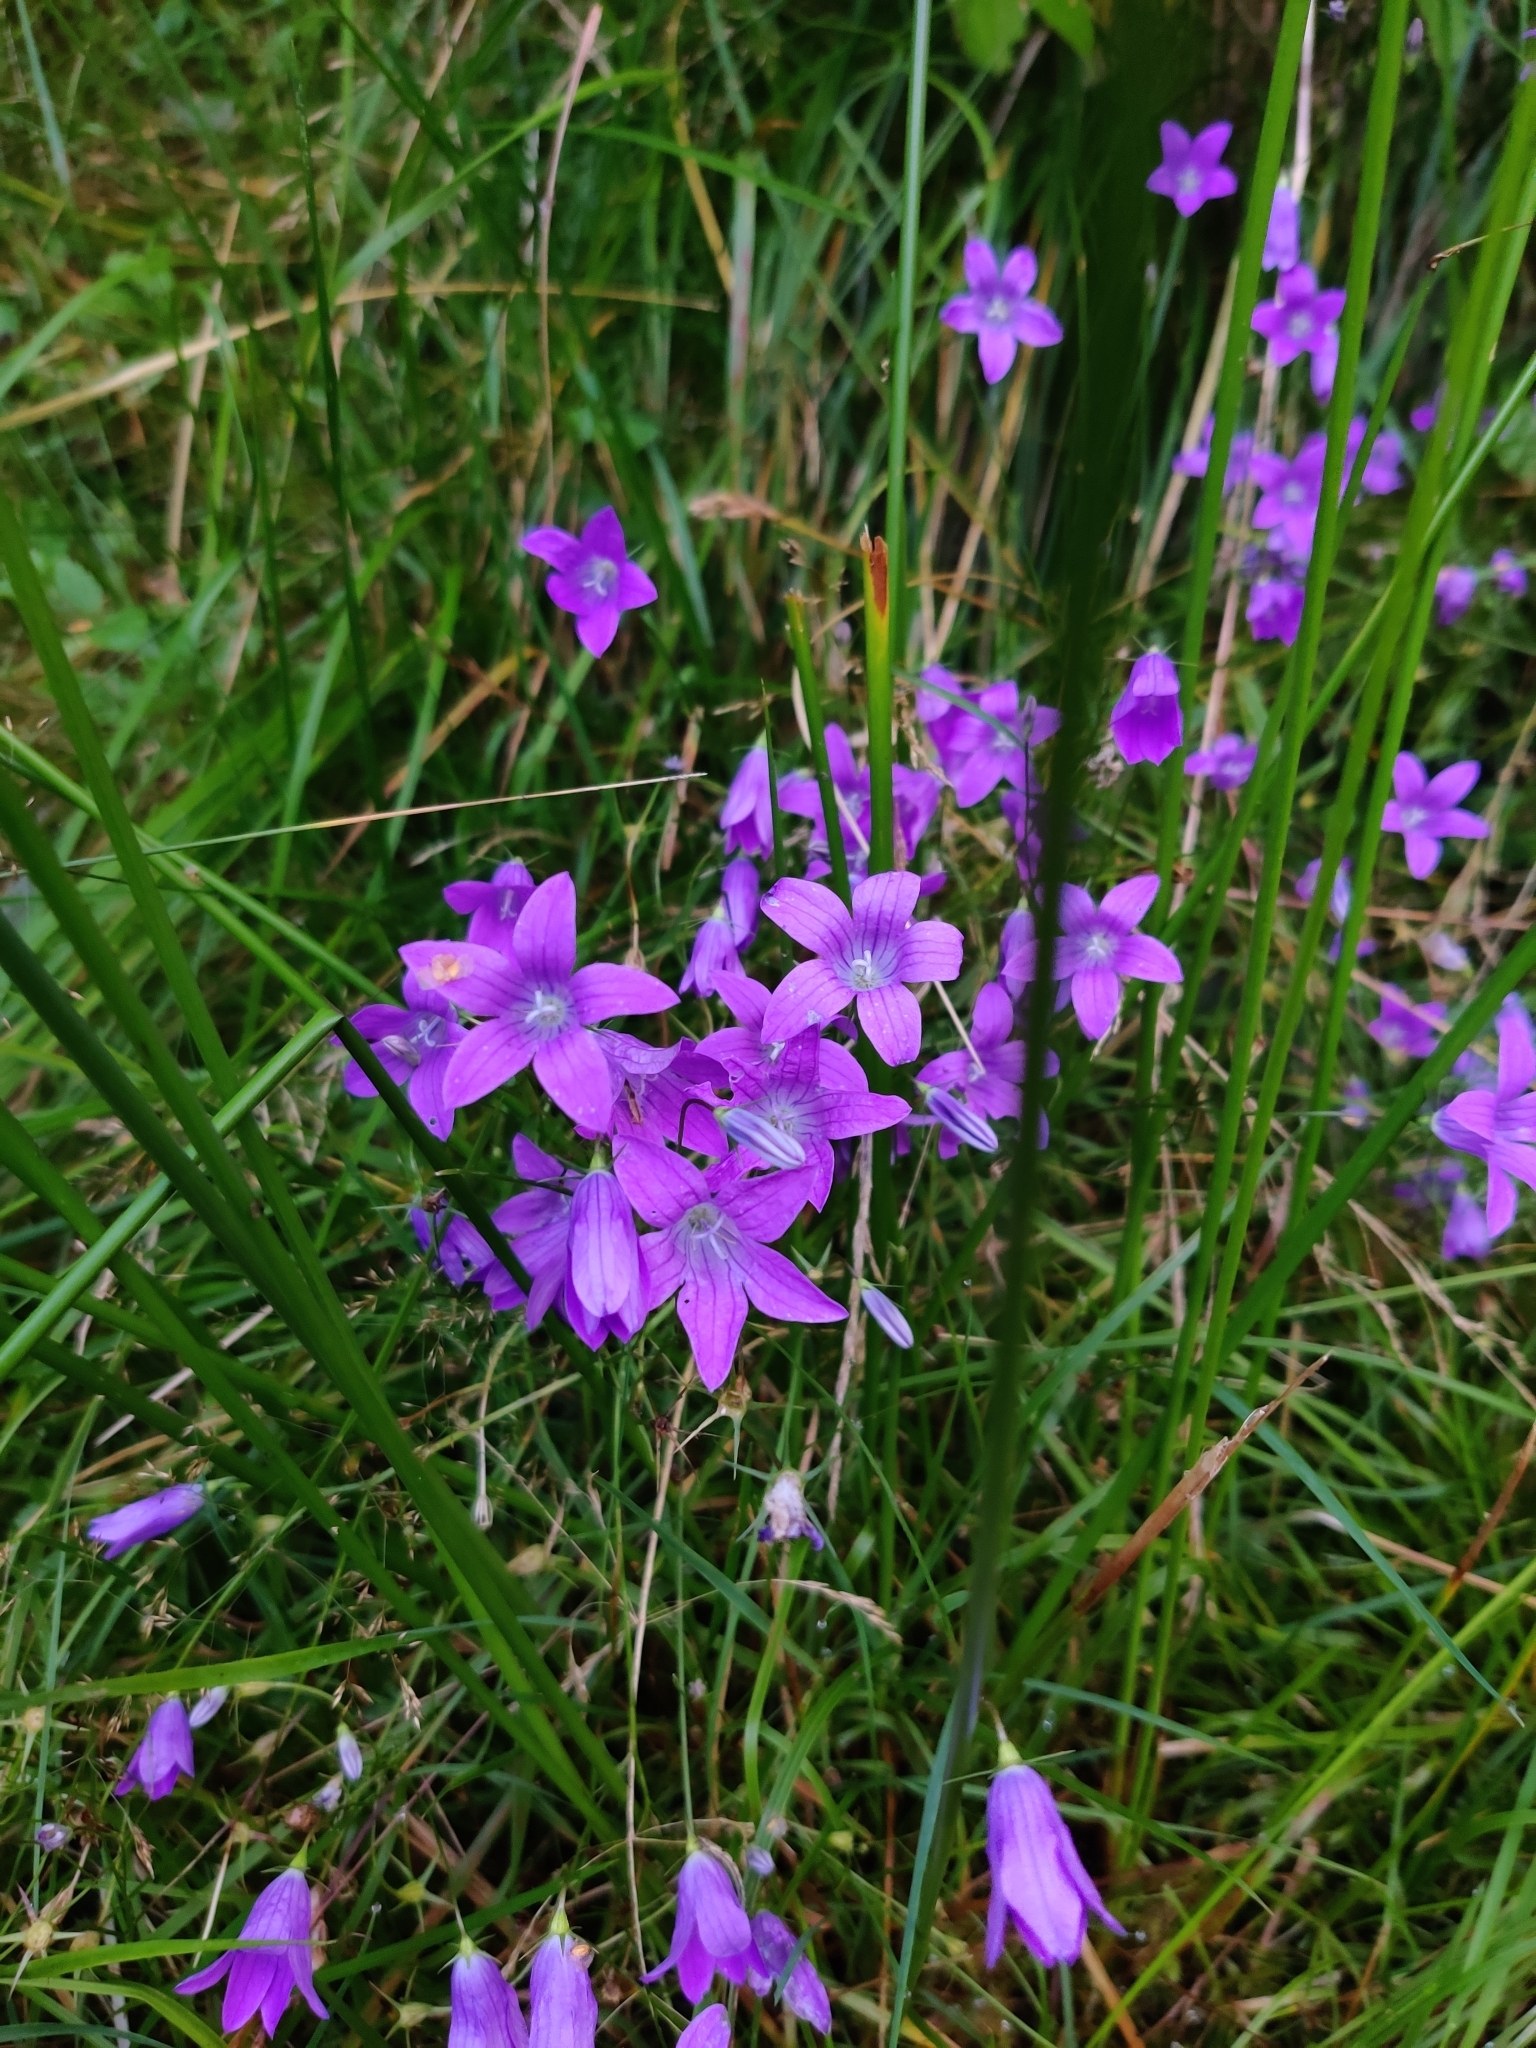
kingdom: Plantae
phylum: Tracheophyta
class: Magnoliopsida
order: Asterales
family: Campanulaceae
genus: Campanula
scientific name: Campanula patula
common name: Spreading bellflower
